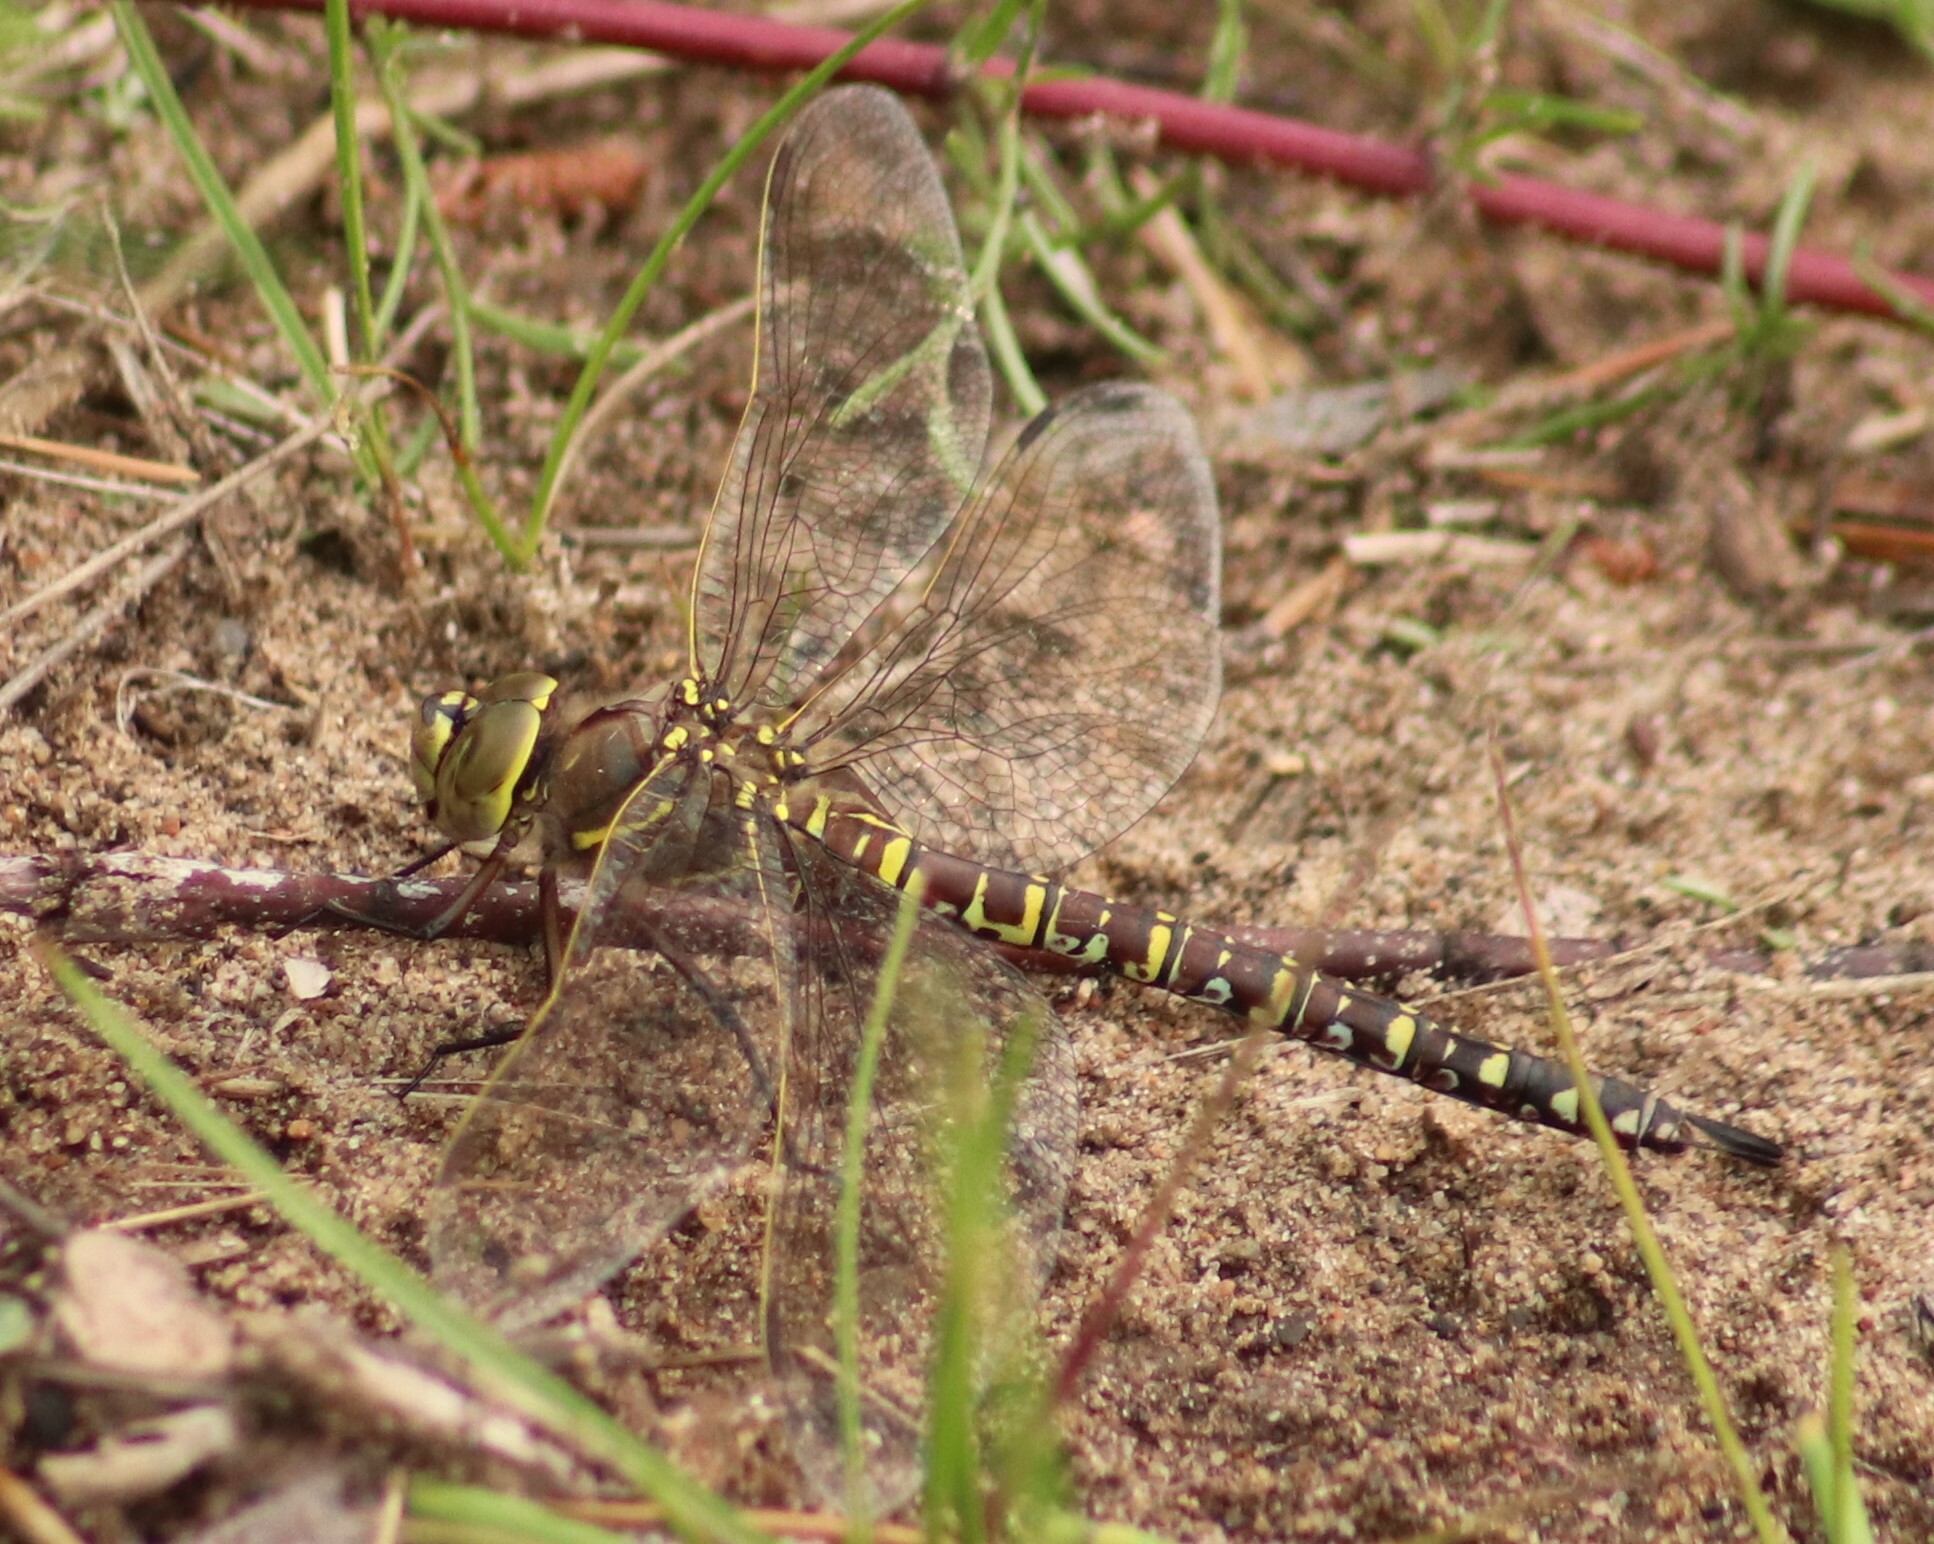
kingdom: Animalia
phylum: Arthropoda
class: Insecta
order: Odonata
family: Aeshnidae
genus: Aeshna
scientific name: Aeshna interrupta
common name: Variable darner
